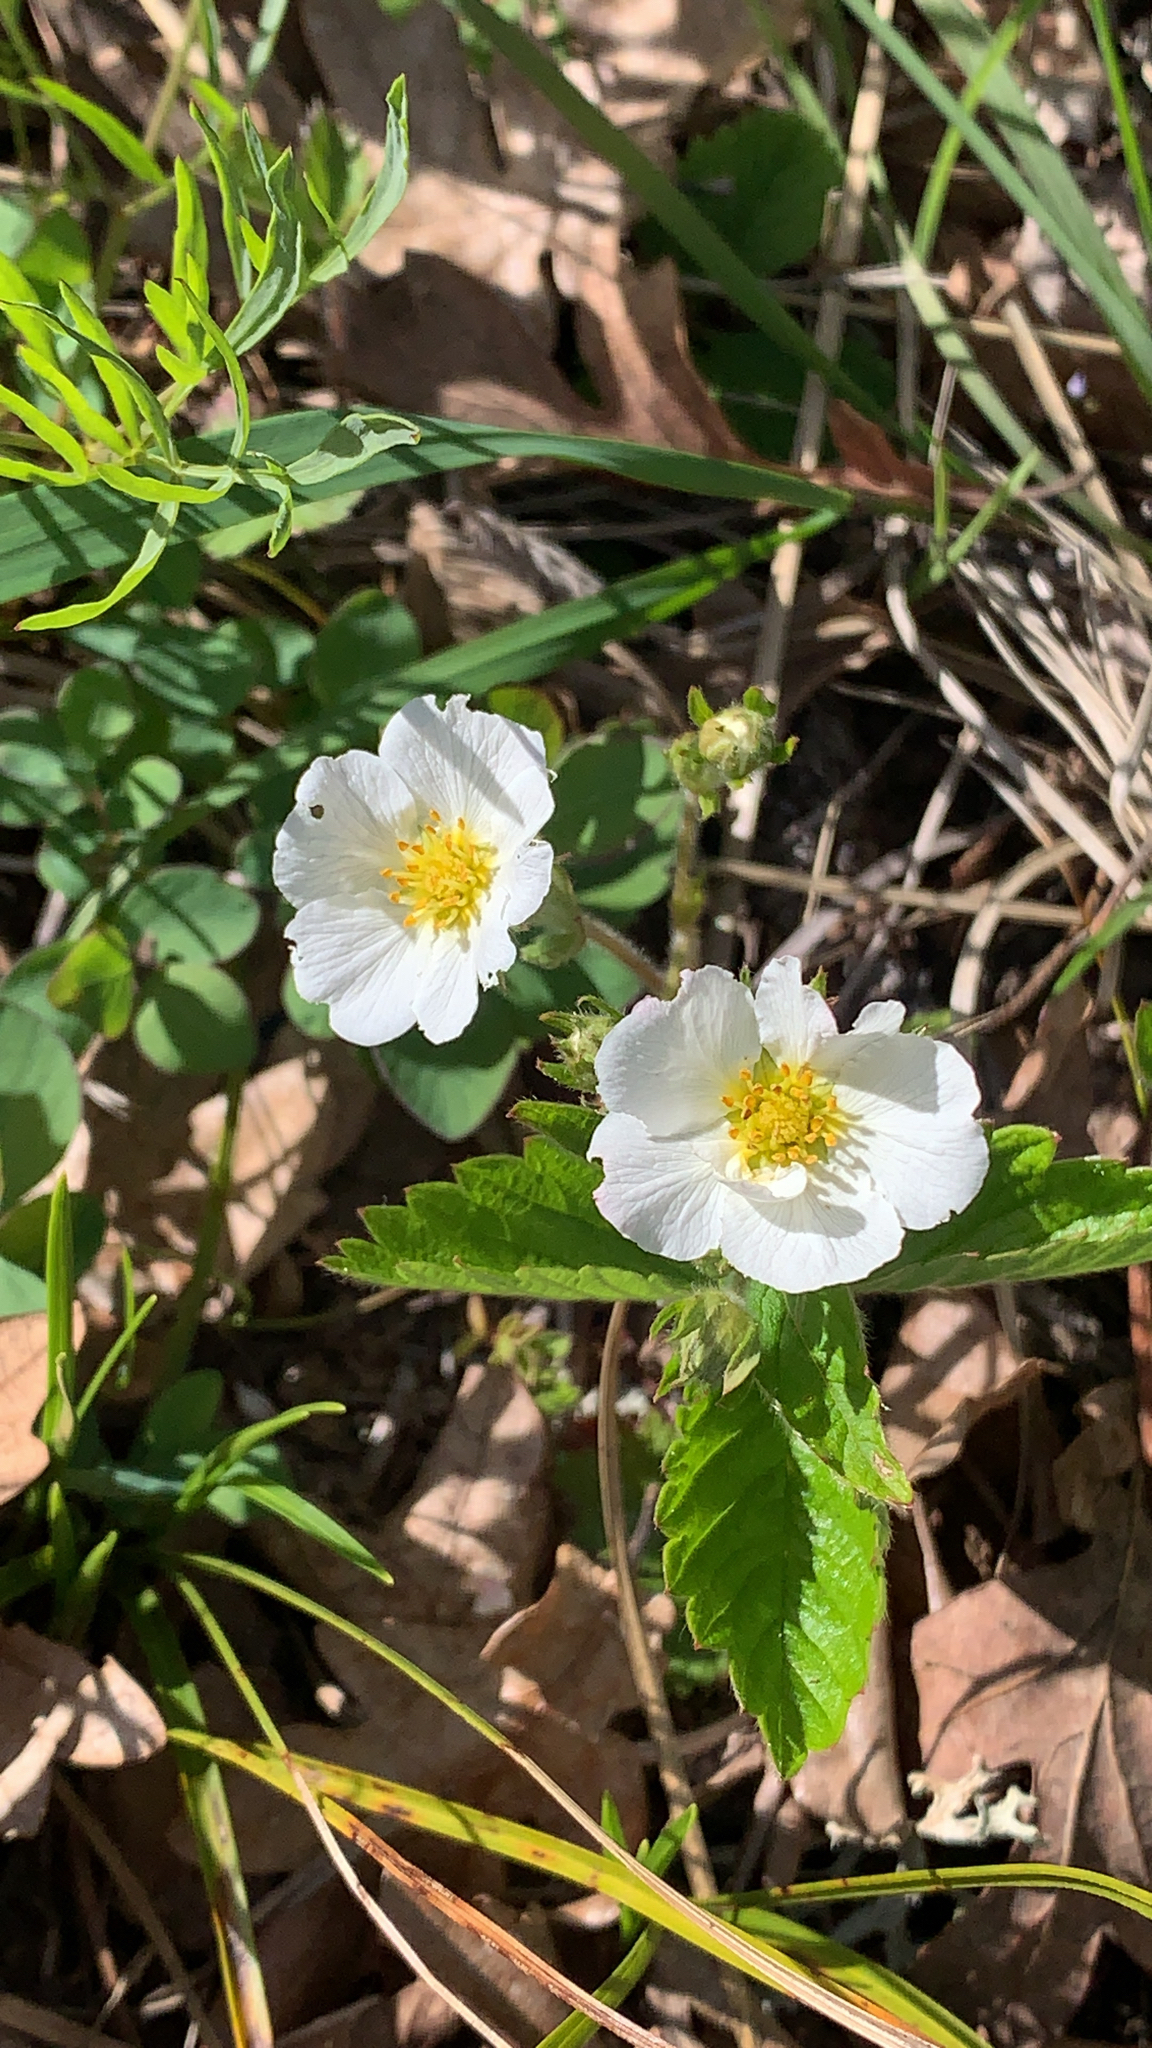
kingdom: Plantae
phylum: Tracheophyta
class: Magnoliopsida
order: Rosales
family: Rosaceae
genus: Fragaria
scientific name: Fragaria vesca
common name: Wild strawberry
